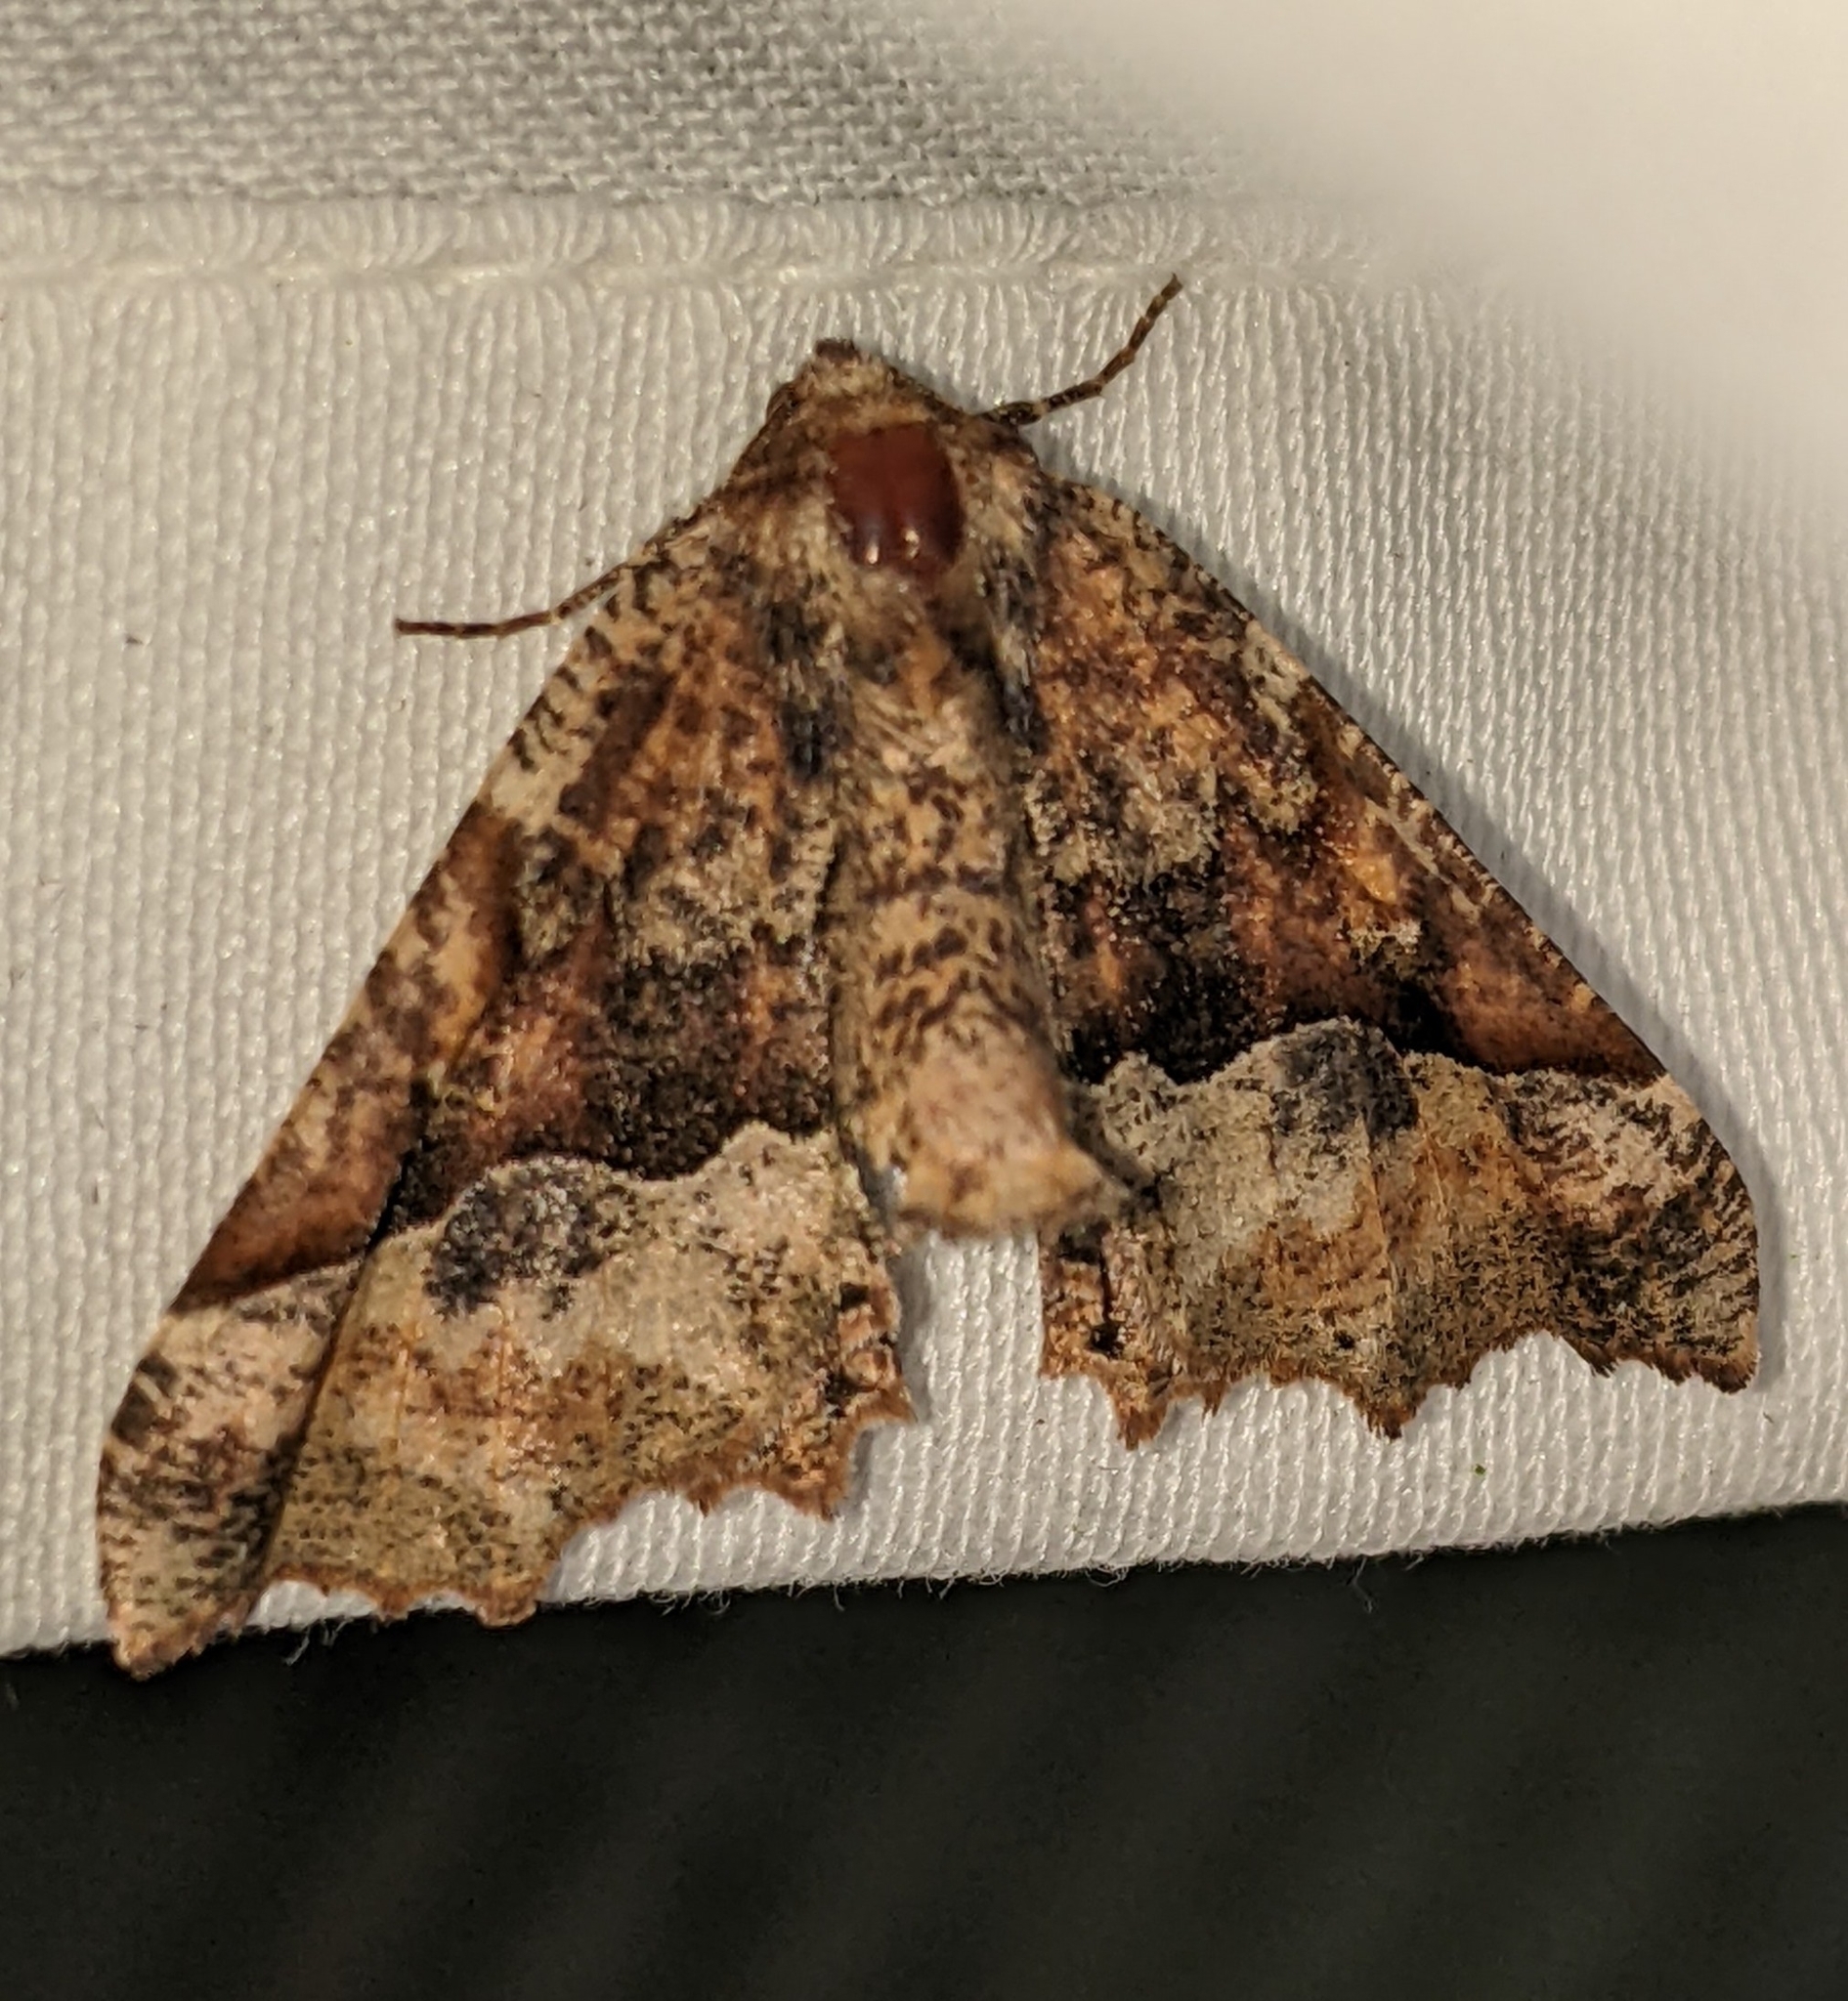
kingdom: Animalia
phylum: Arthropoda
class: Insecta
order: Lepidoptera
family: Geometridae
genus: Pero
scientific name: Pero morrisonaria
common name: Morrison's pero
